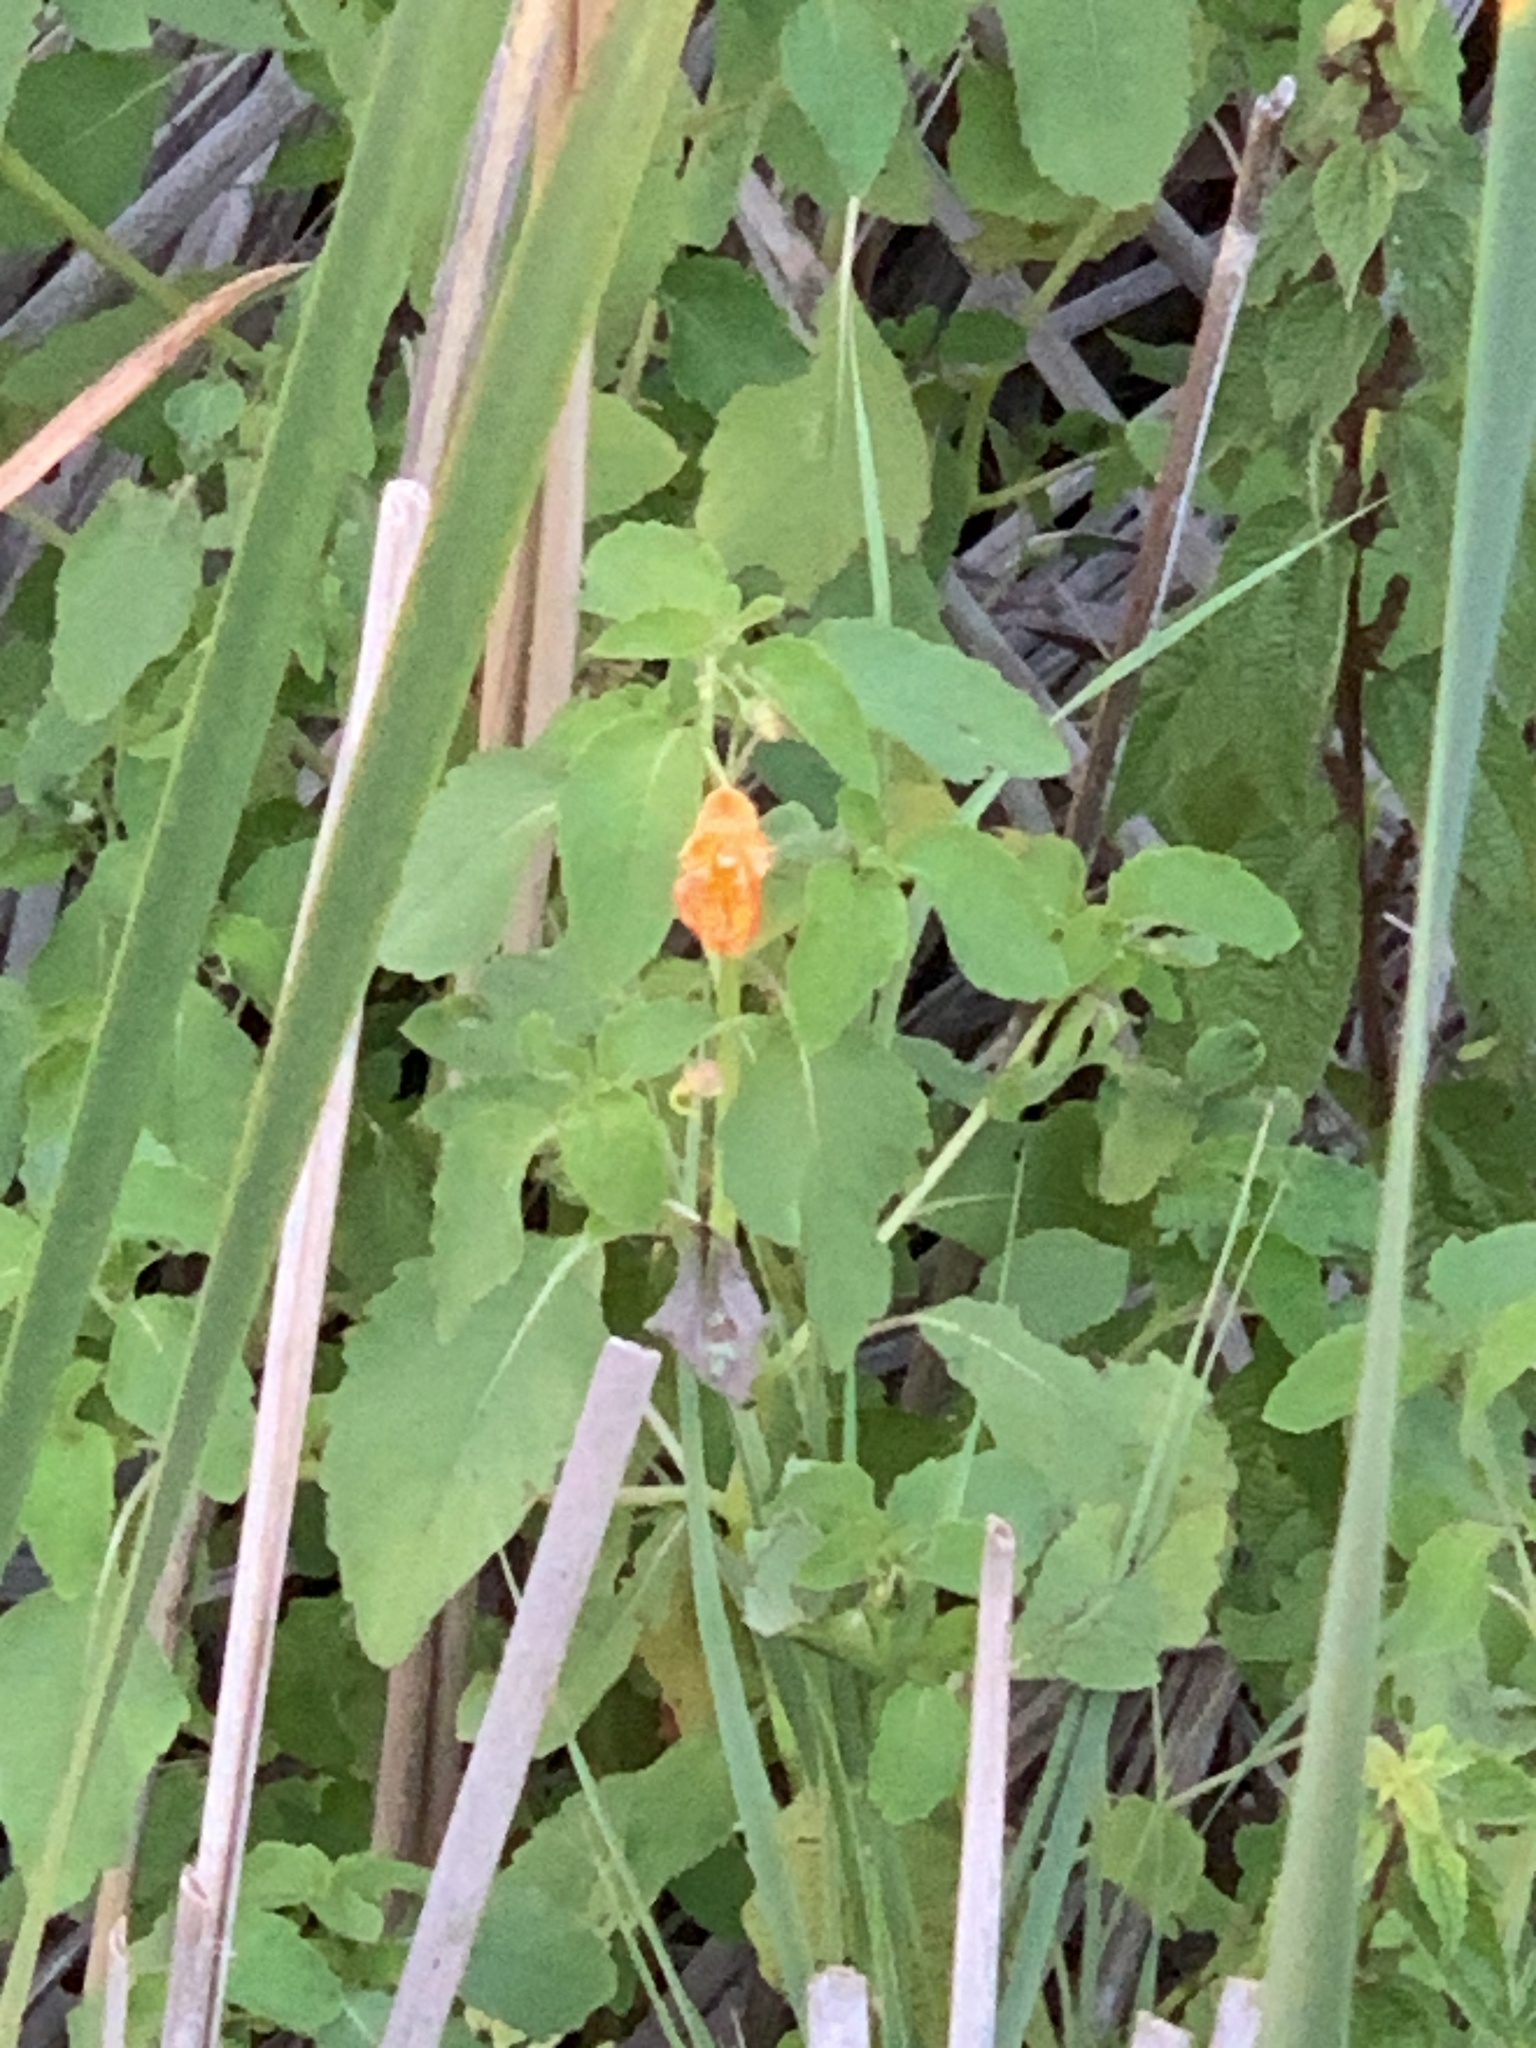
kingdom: Plantae
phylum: Tracheophyta
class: Magnoliopsida
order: Ericales
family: Balsaminaceae
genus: Impatiens
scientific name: Impatiens capensis
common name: Orange balsam
